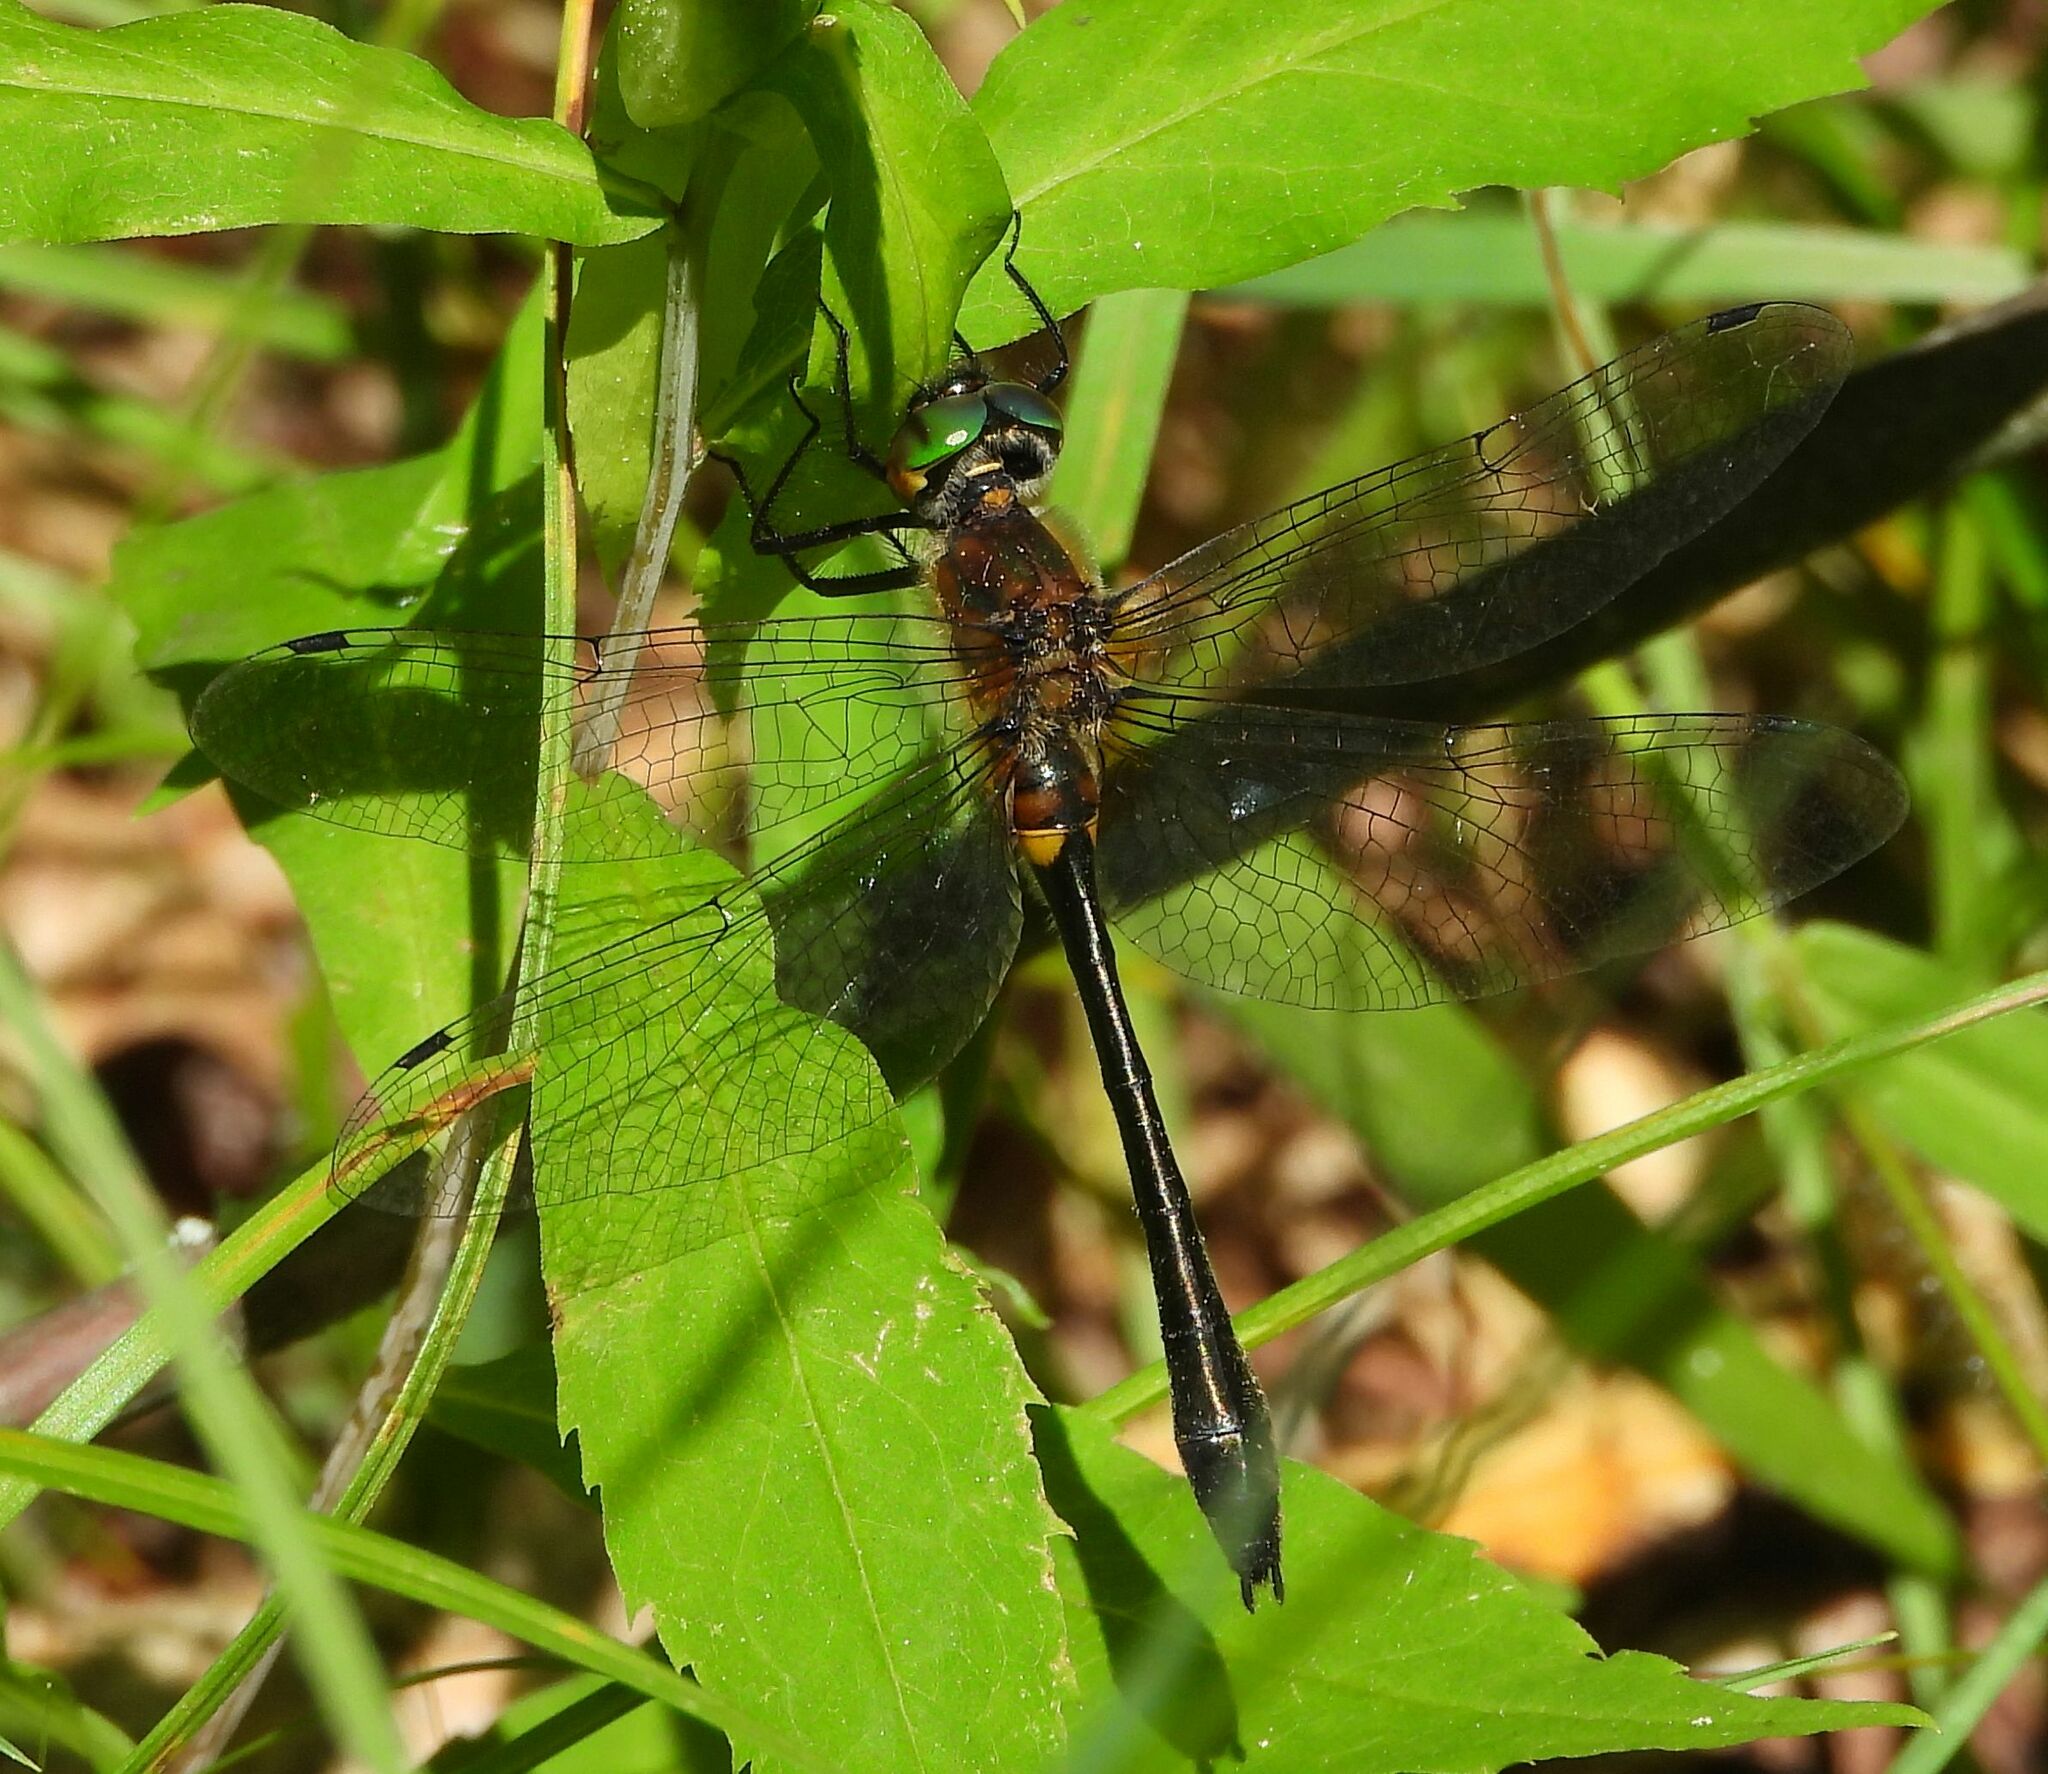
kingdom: Animalia
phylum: Arthropoda
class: Insecta
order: Odonata
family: Corduliidae
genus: Dorocordulia
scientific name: Dorocordulia libera
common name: Racket-tailed emerald
